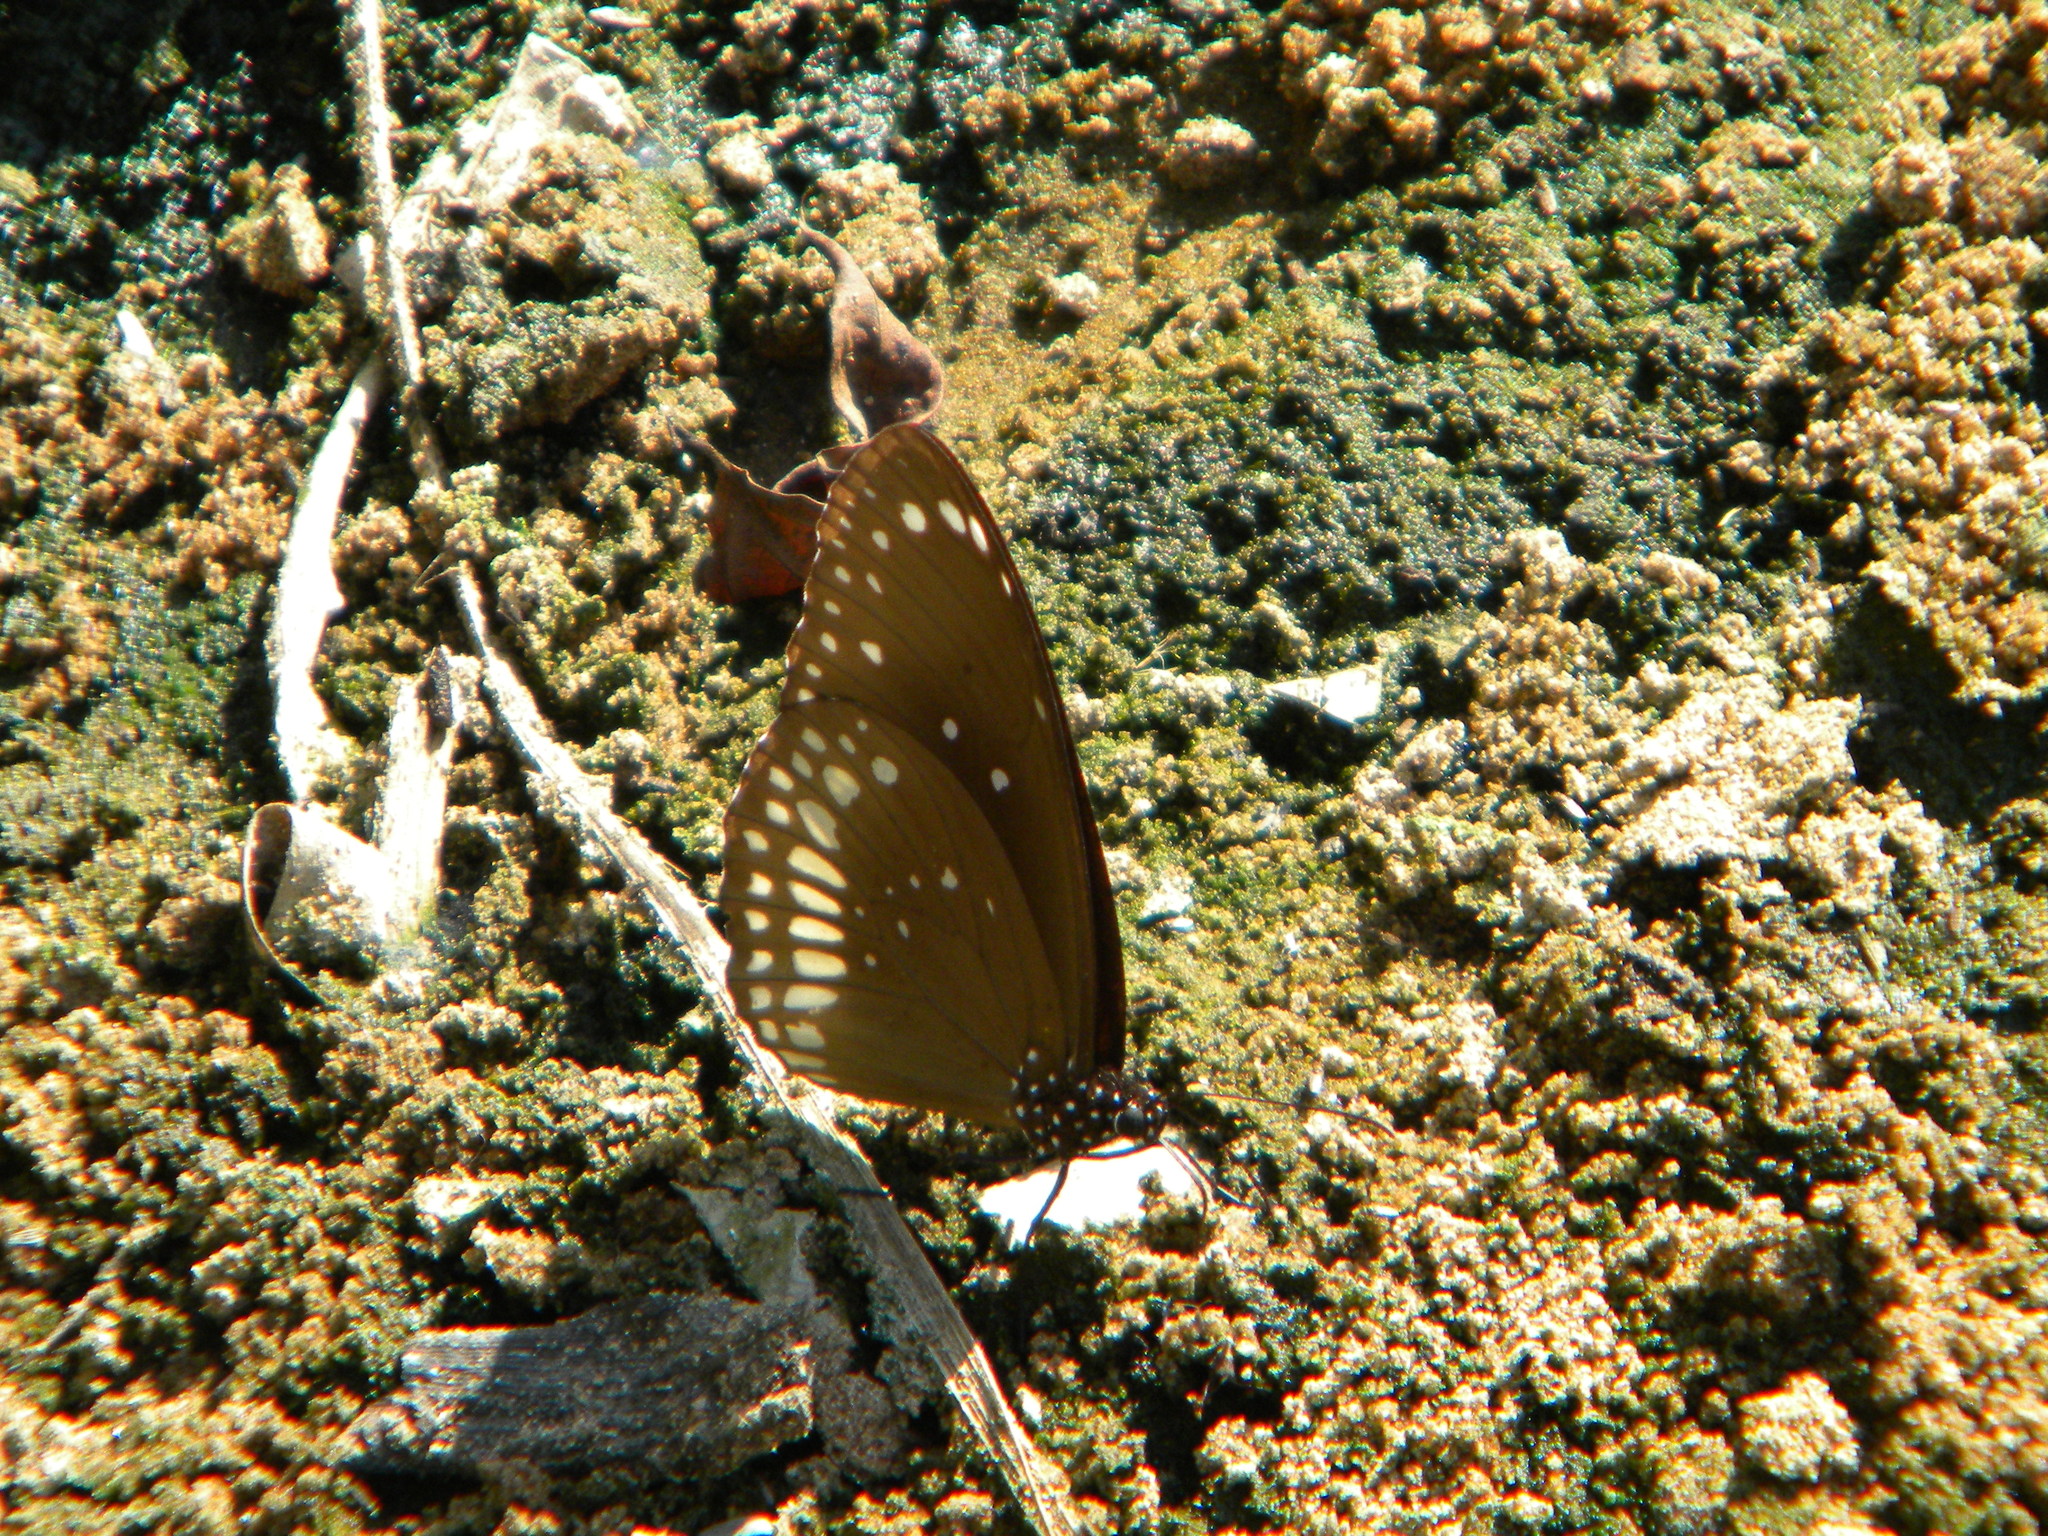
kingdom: Animalia
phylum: Arthropoda
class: Insecta
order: Lepidoptera
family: Nymphalidae
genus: Euploea
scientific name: Euploea core
